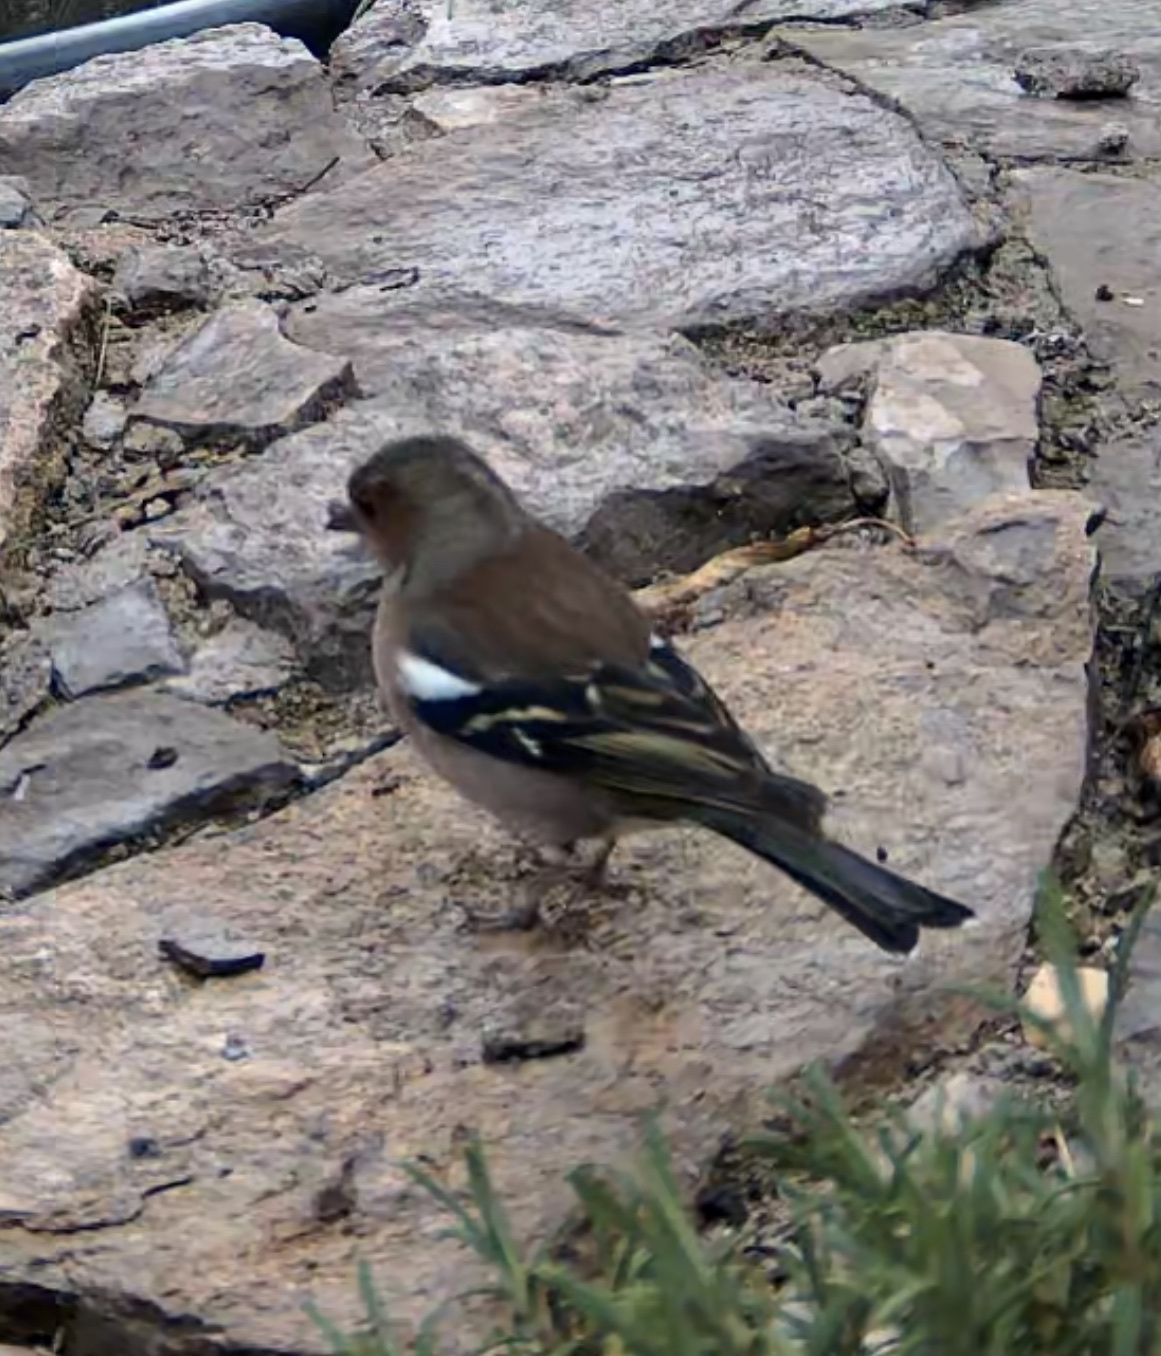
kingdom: Animalia
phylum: Chordata
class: Aves
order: Passeriformes
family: Fringillidae
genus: Fringilla
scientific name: Fringilla coelebs
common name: Common chaffinch
